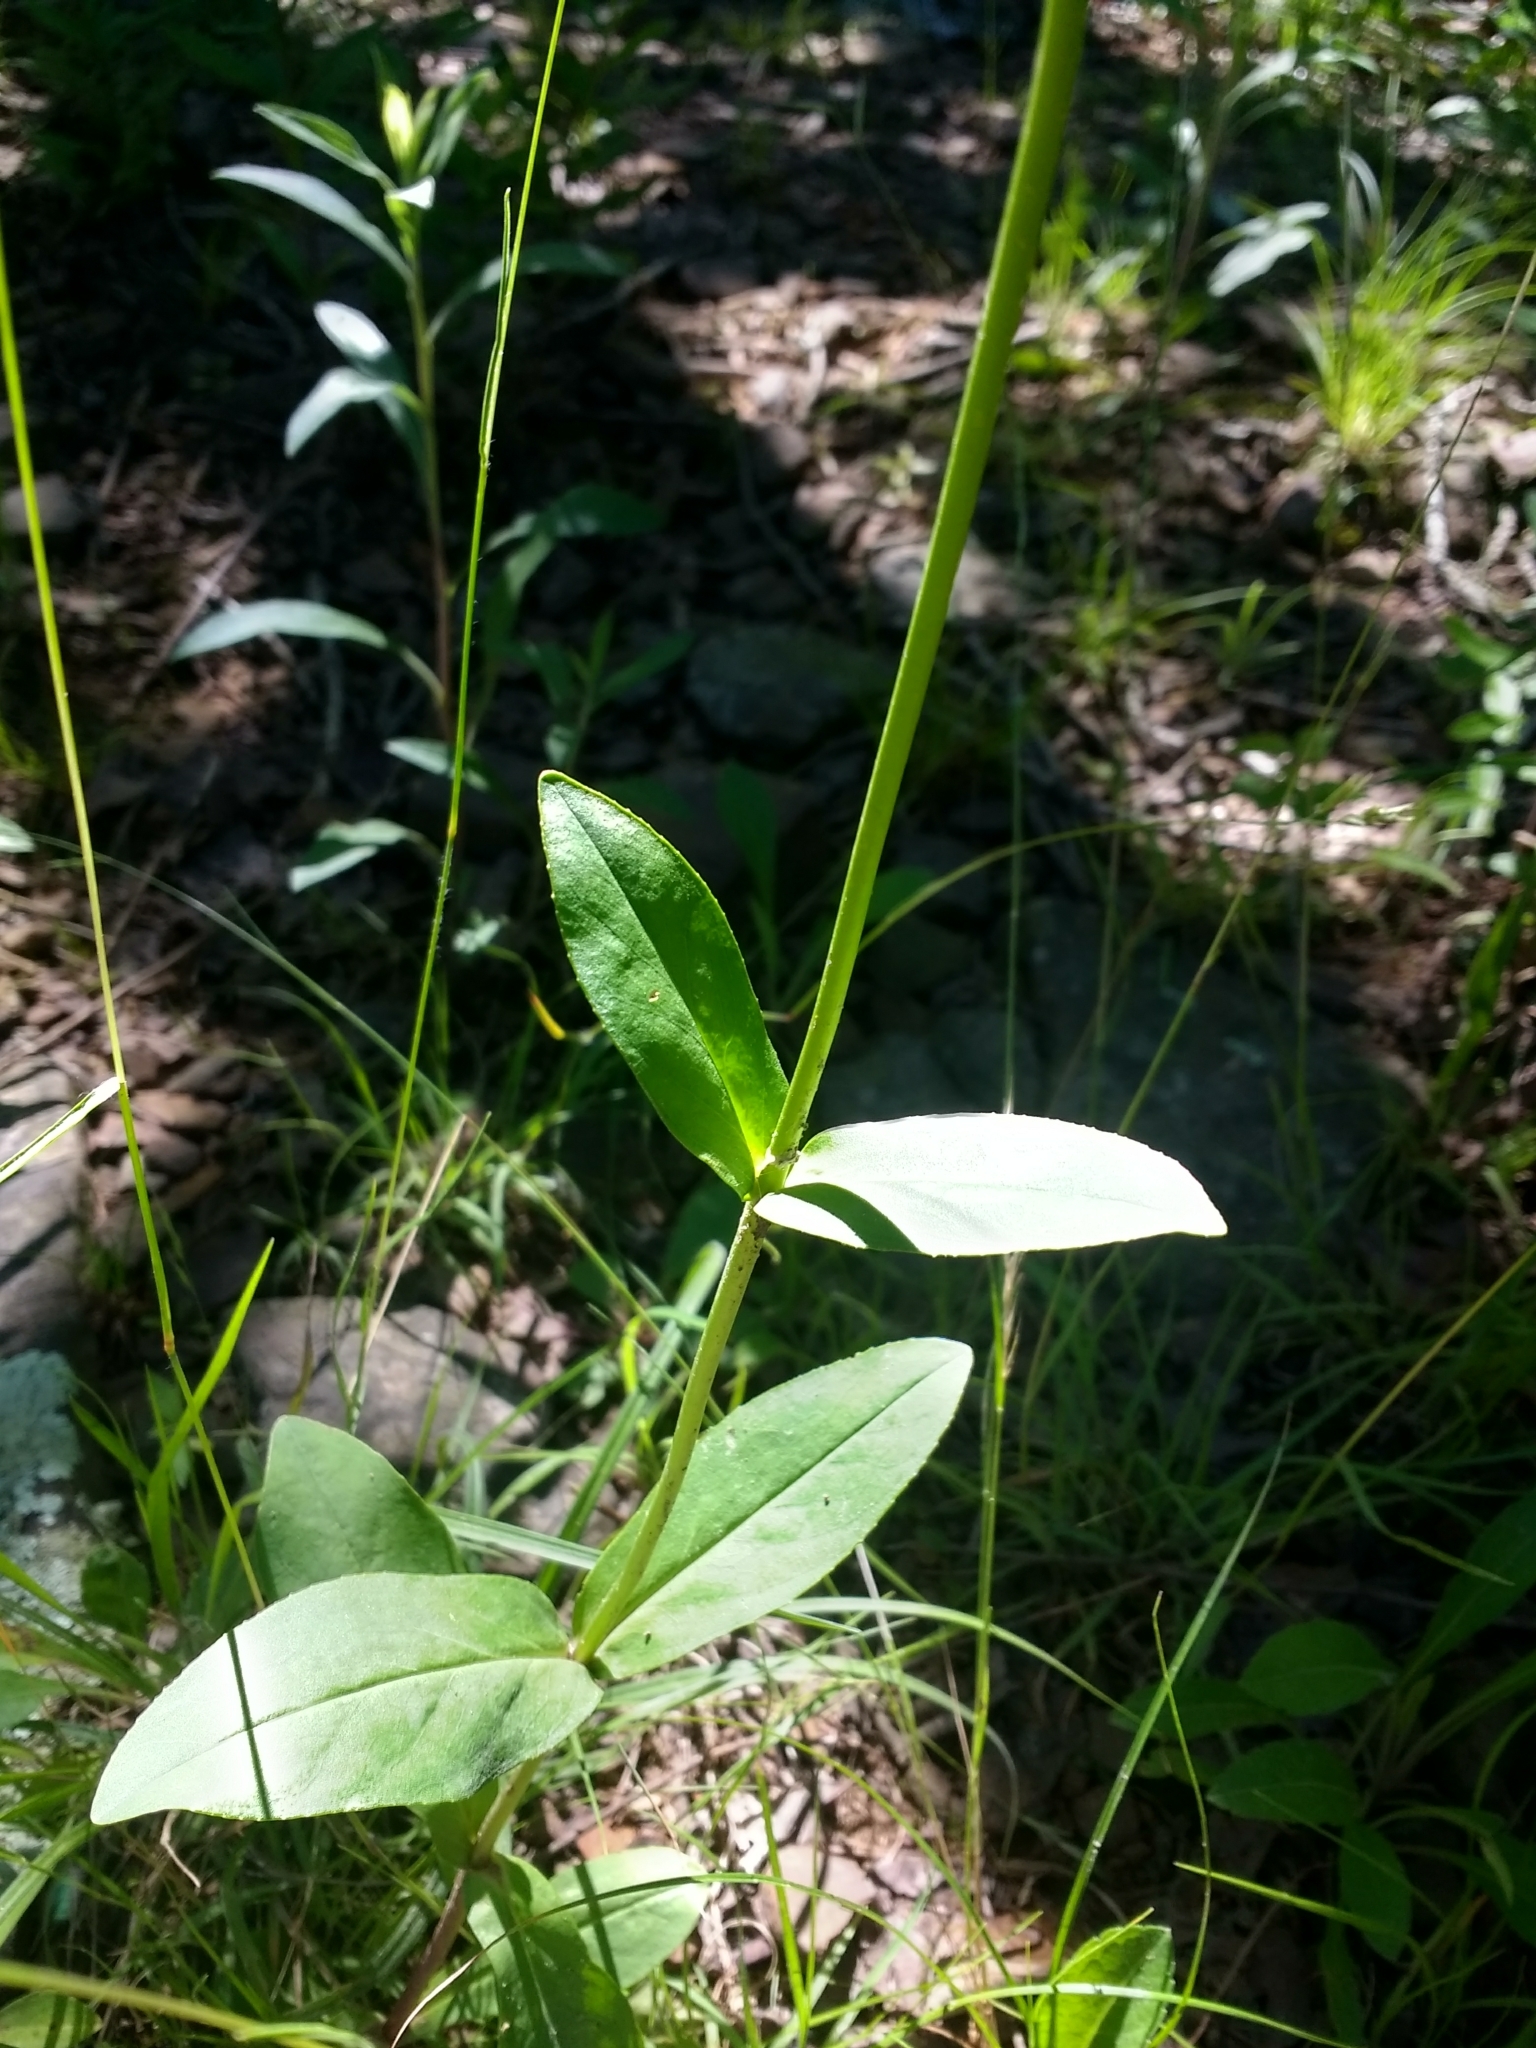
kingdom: Plantae
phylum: Tracheophyta
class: Magnoliopsida
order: Lamiales
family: Plantaginaceae
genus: Penstemon
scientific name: Penstemon tubaeflorus
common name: White wand beardtongue
